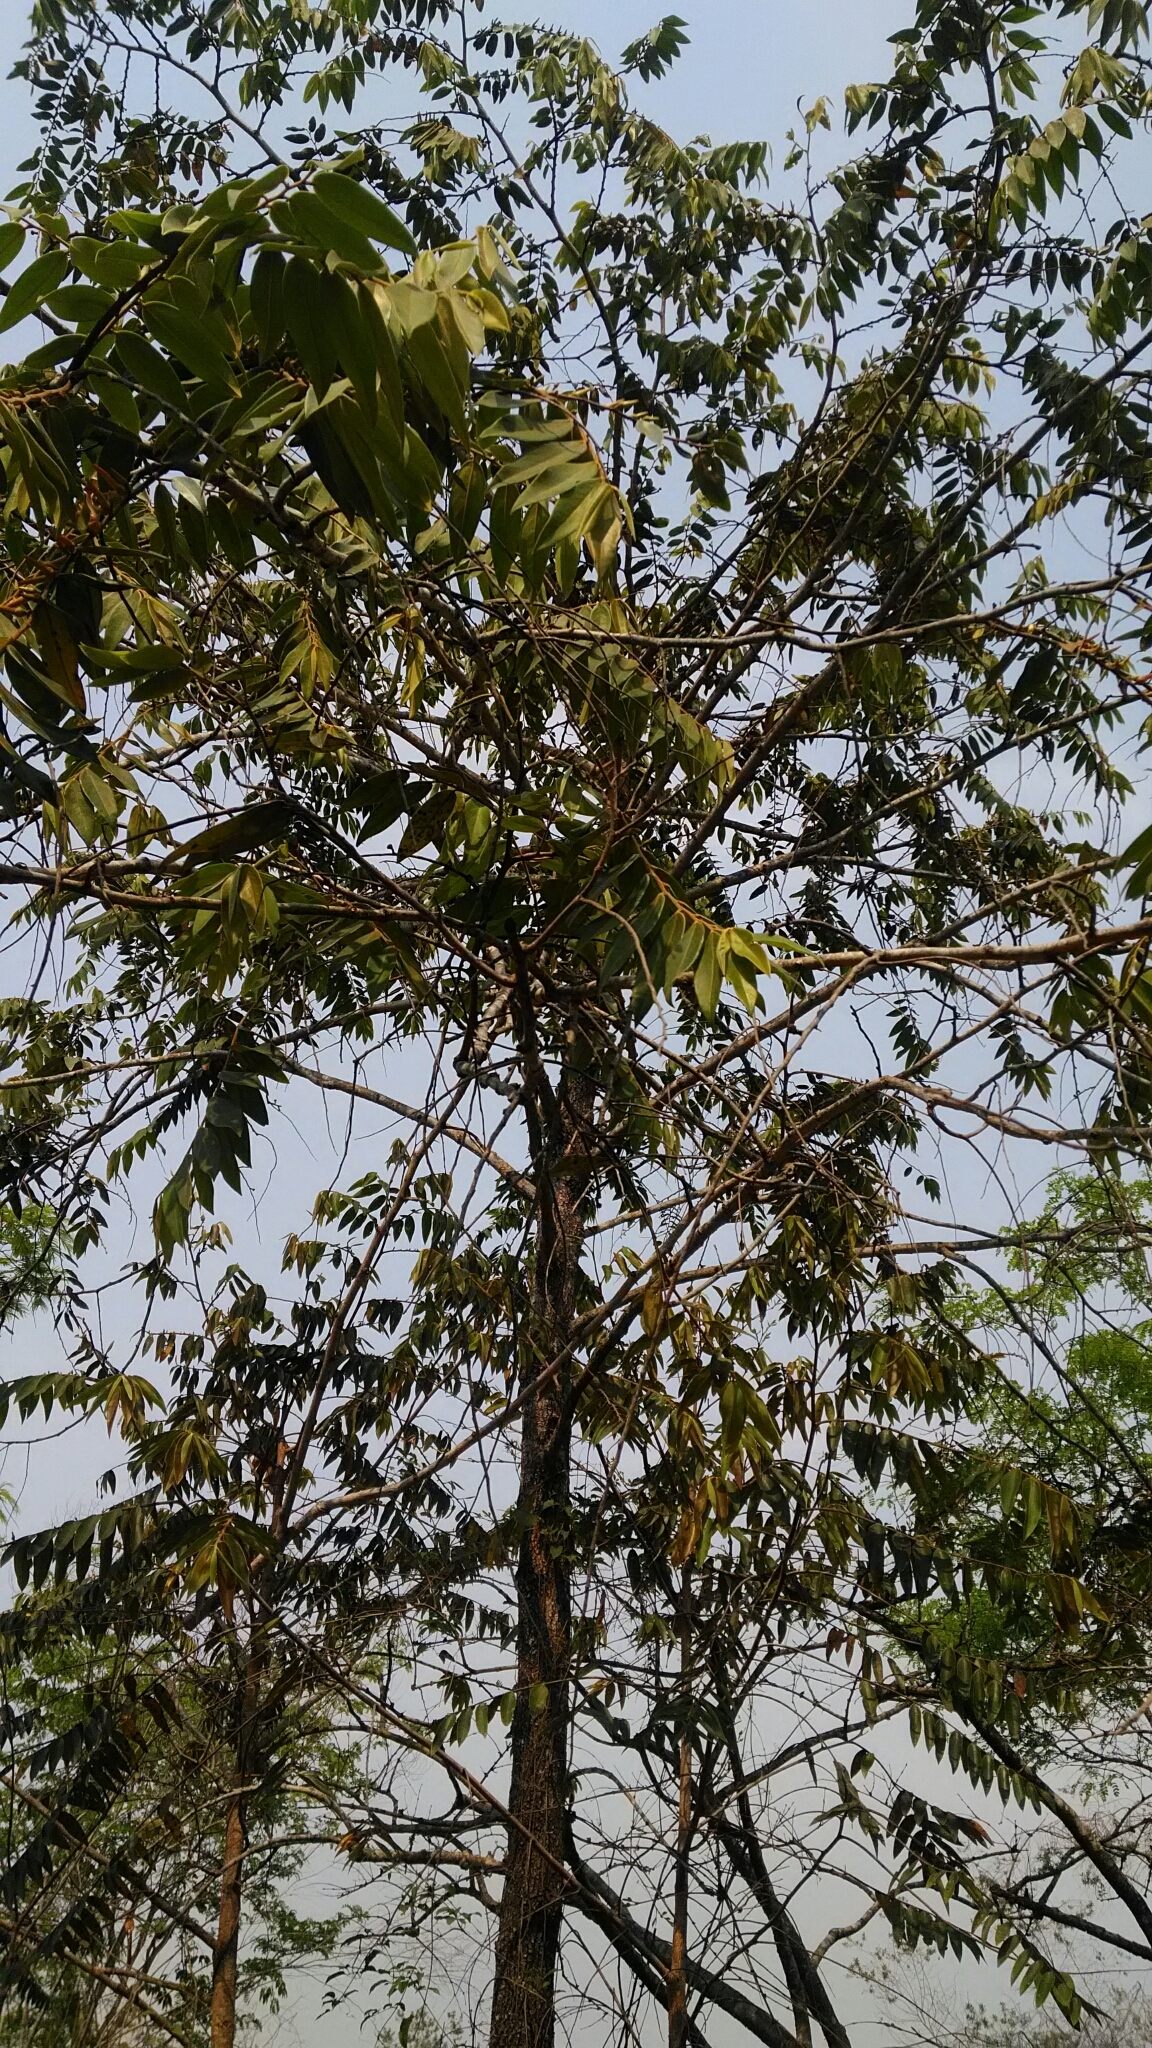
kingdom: Plantae
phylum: Tracheophyta
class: Magnoliopsida
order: Magnoliales
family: Annonaceae
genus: Xylopia
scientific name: Xylopia aromatica
